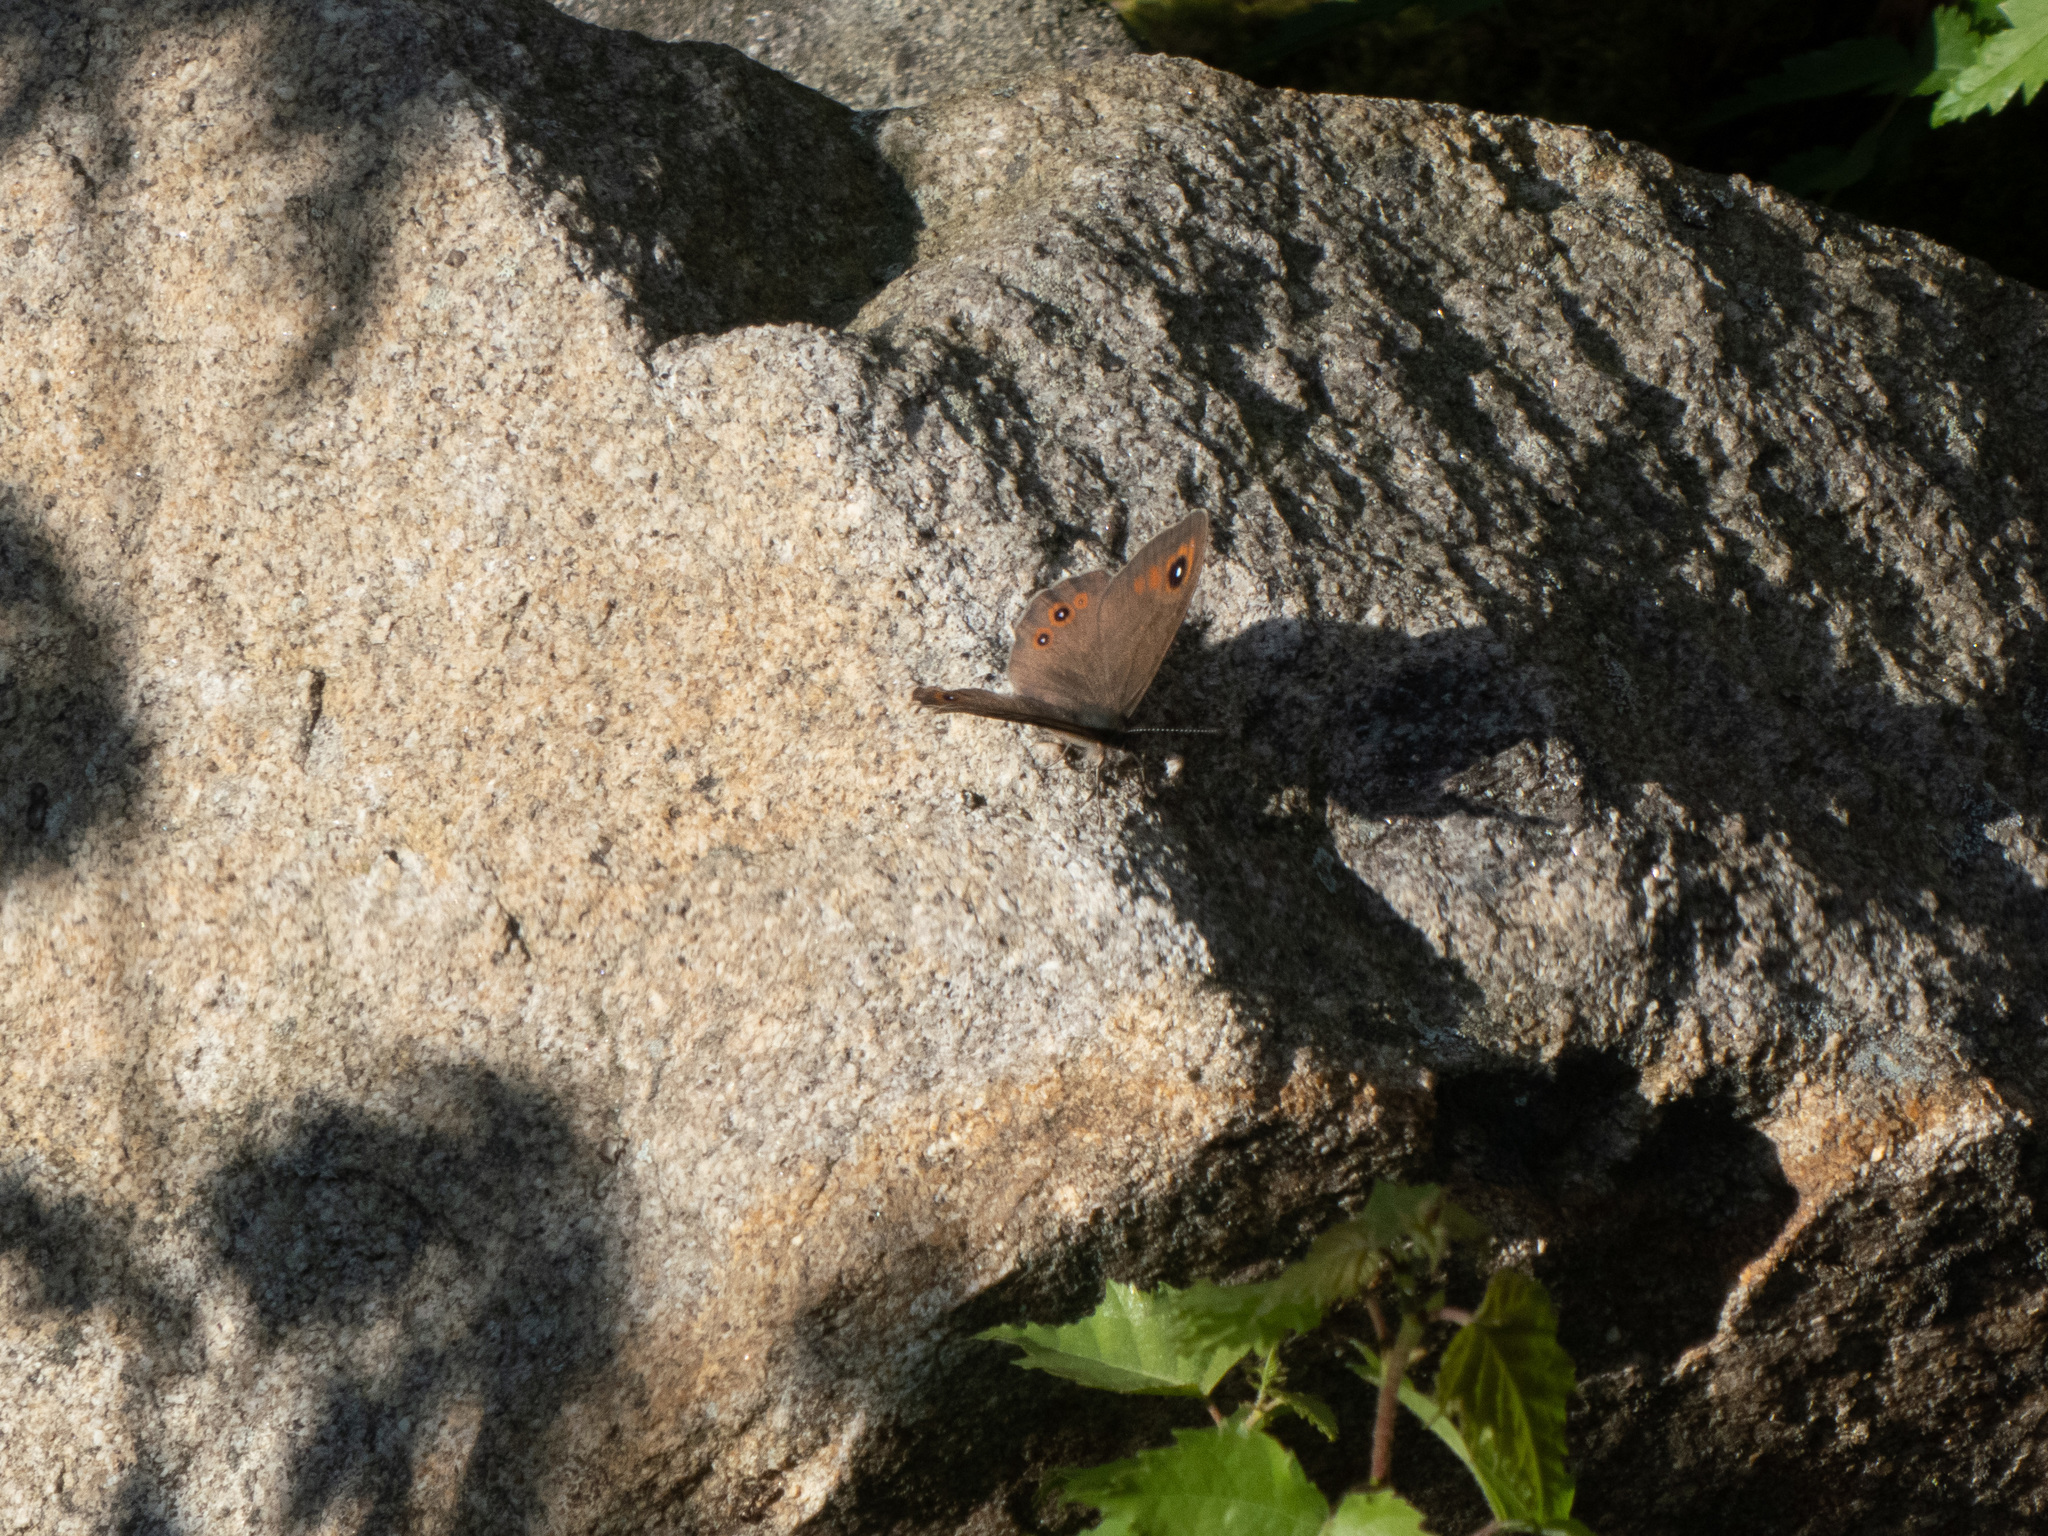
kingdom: Animalia
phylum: Arthropoda
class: Insecta
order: Lepidoptera
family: Nymphalidae
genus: Pararge
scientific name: Pararge Lasiommata maera
